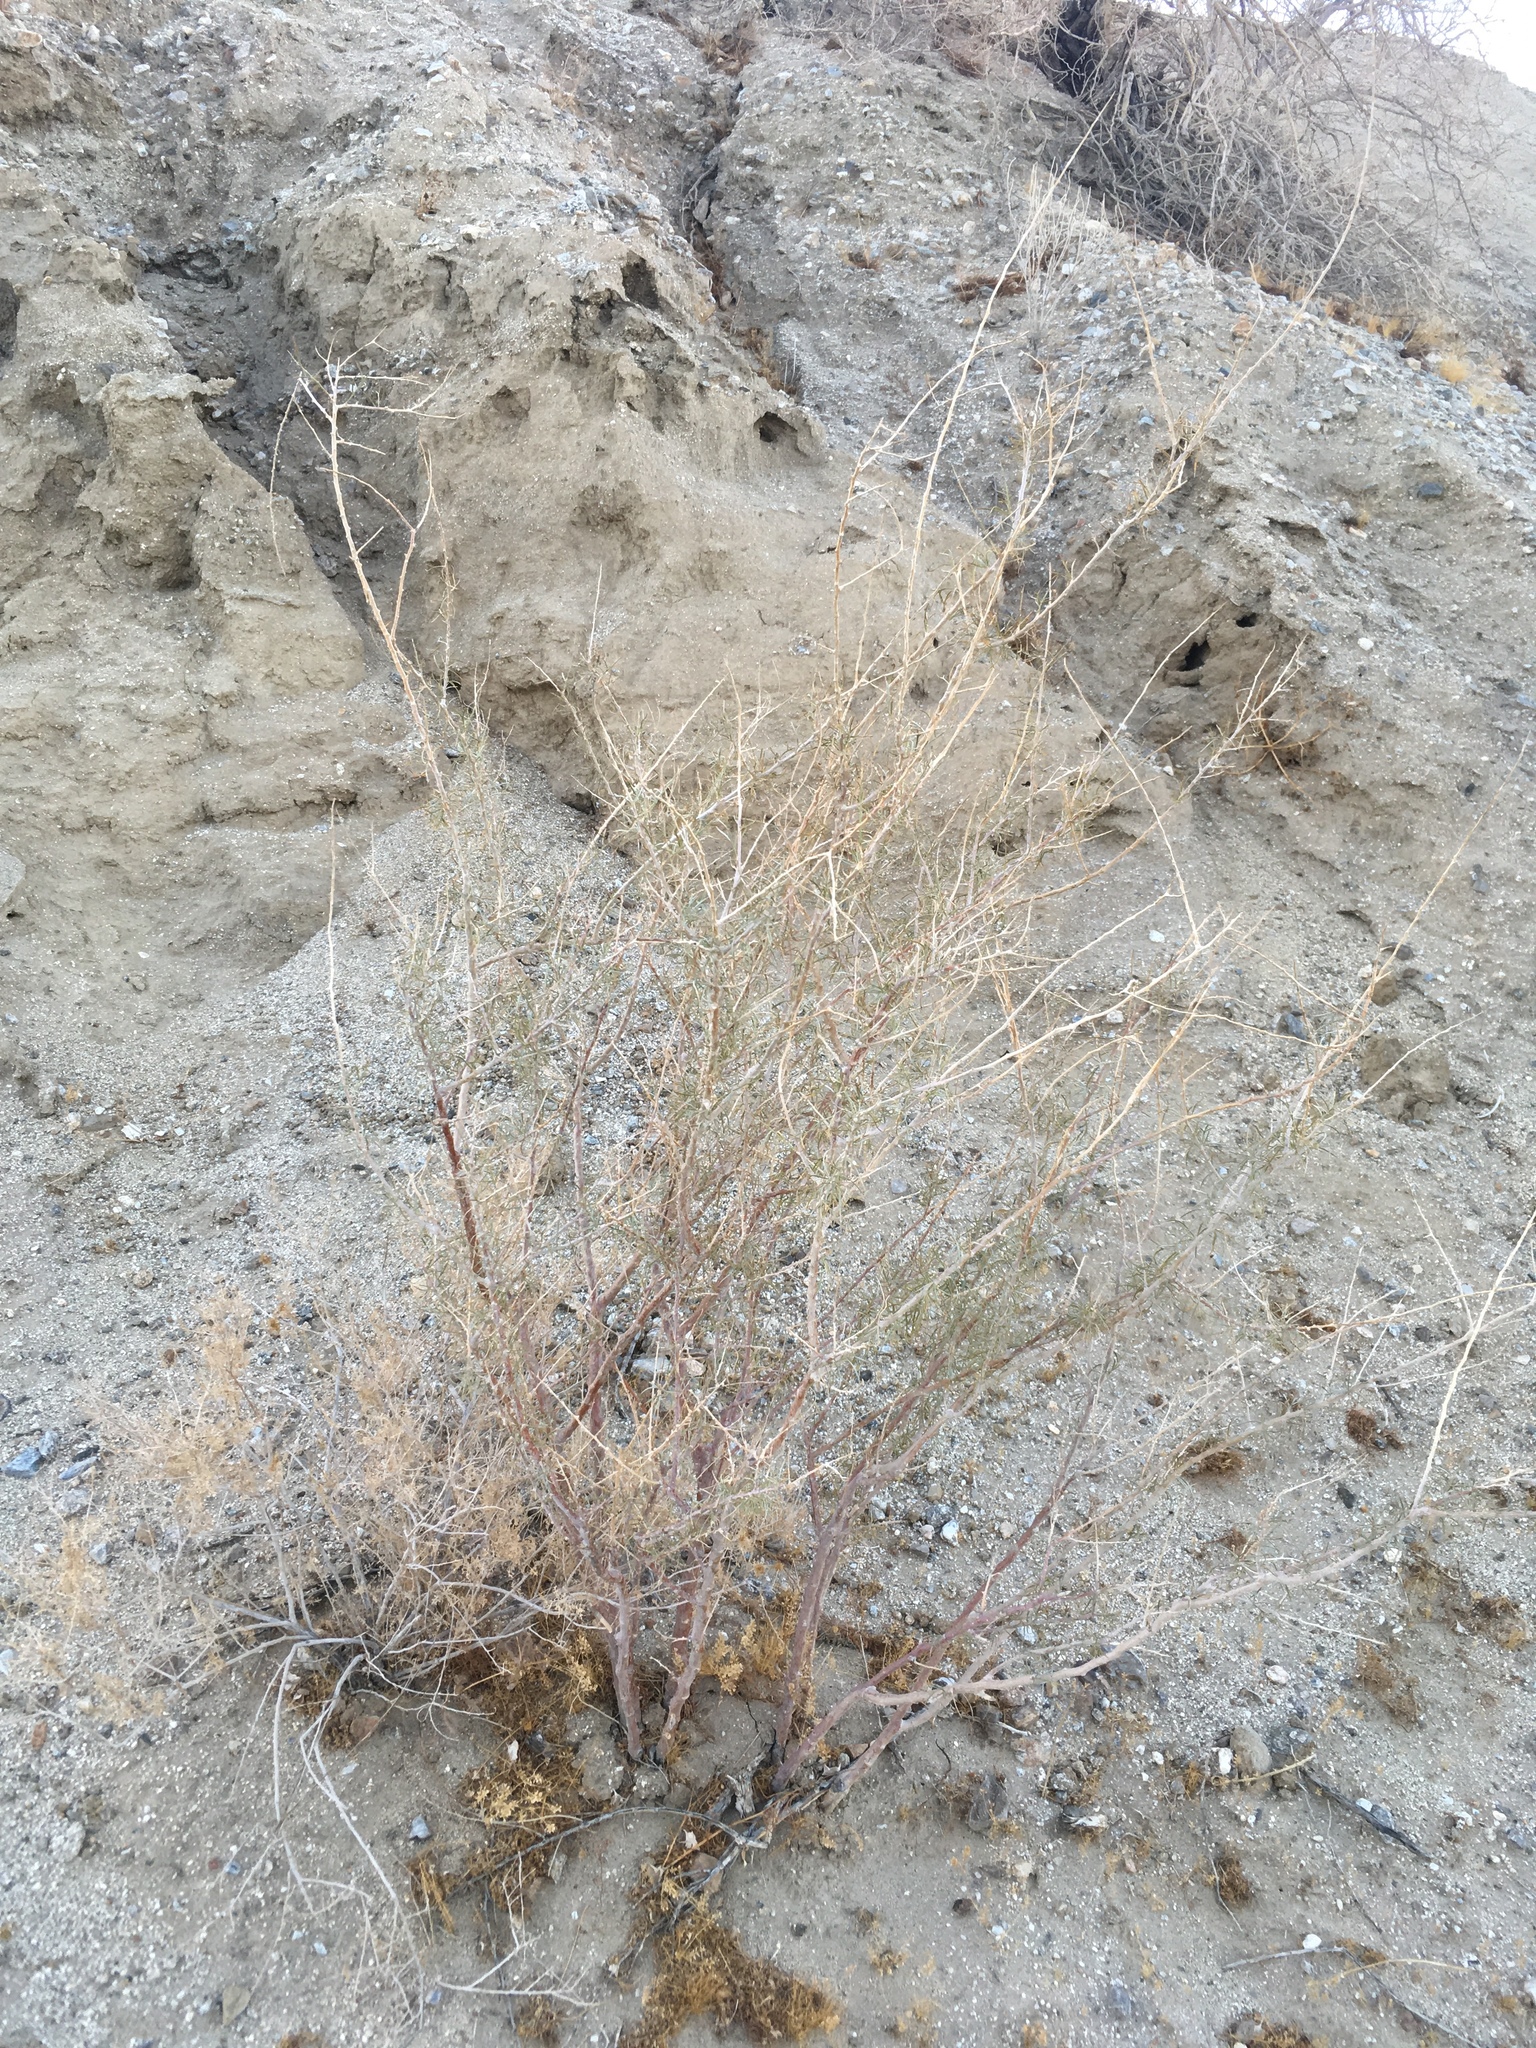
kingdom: Plantae
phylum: Tracheophyta
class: Magnoliopsida
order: Fabales
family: Fabaceae
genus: Psorothamnus
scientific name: Psorothamnus schottii
